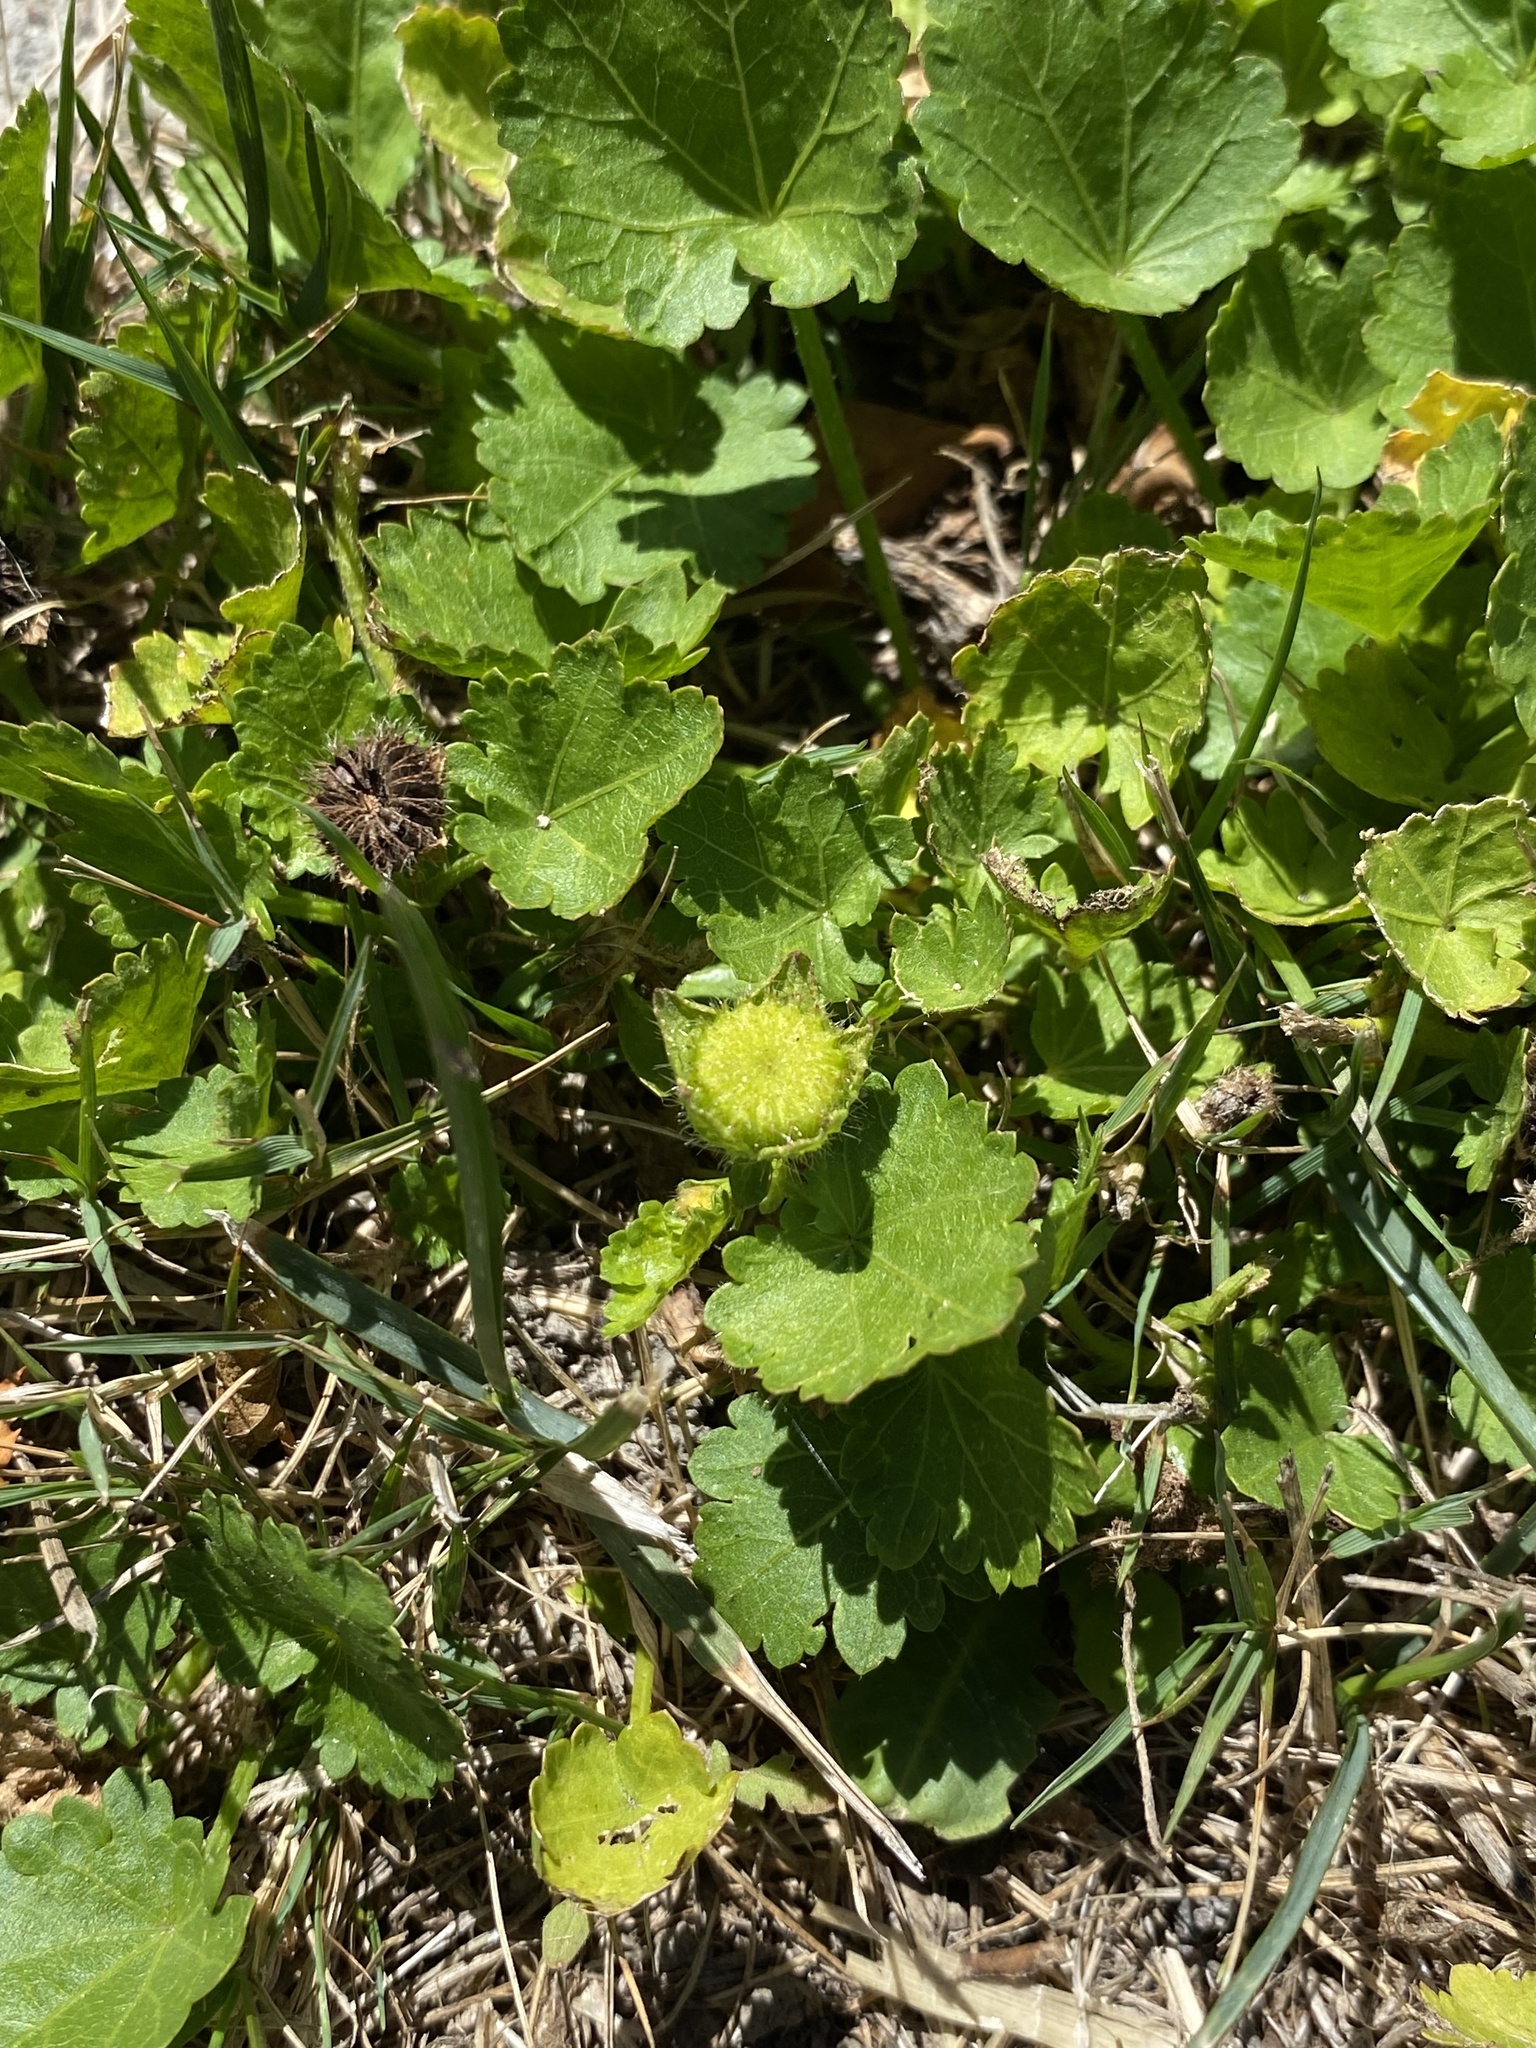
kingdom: Plantae
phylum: Tracheophyta
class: Magnoliopsida
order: Malvales
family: Malvaceae
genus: Modiola
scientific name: Modiola caroliniana
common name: Carolina bristlemallow
